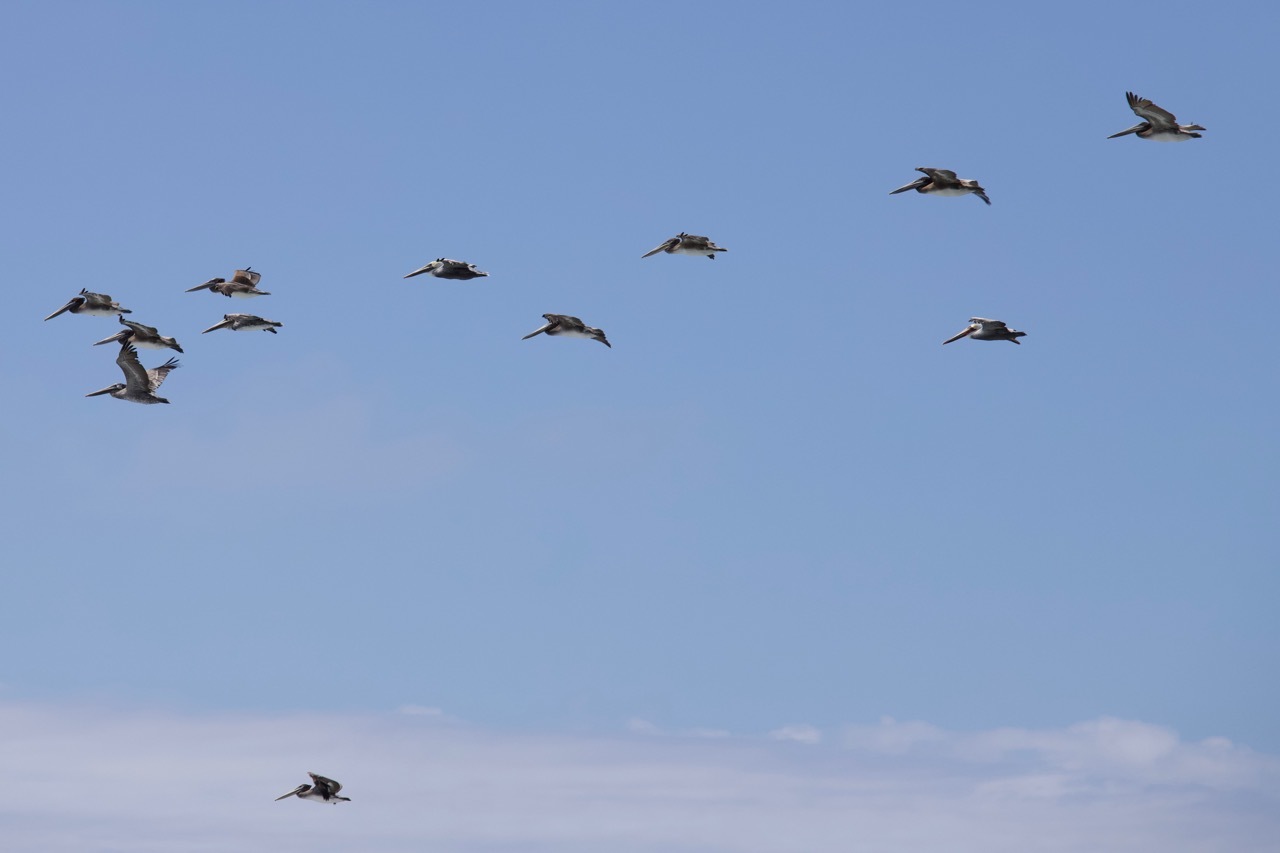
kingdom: Animalia
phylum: Chordata
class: Aves
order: Pelecaniformes
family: Pelecanidae
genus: Pelecanus
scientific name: Pelecanus occidentalis
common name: Brown pelican
